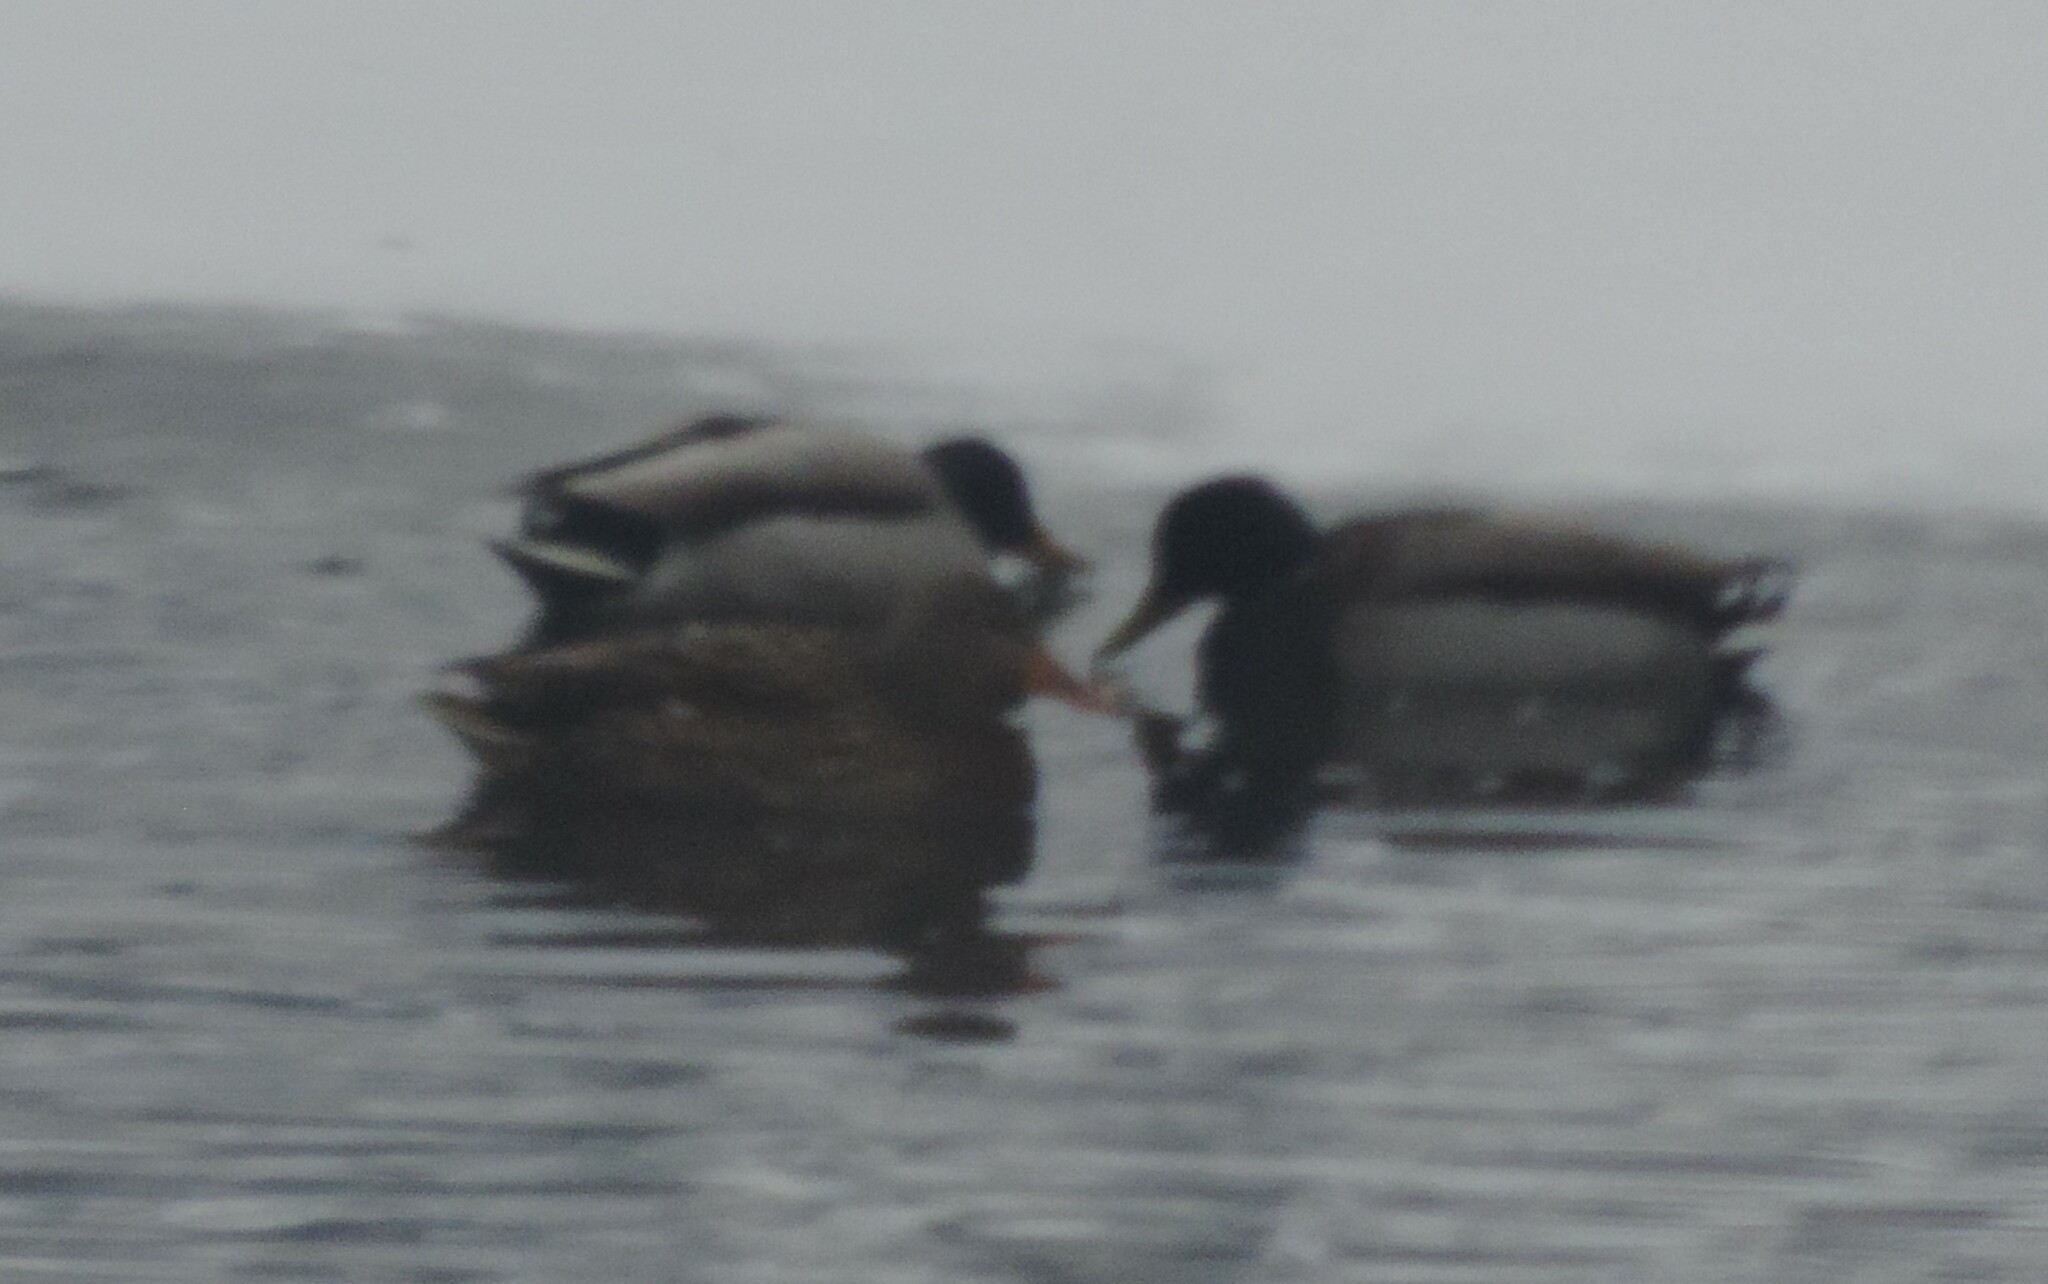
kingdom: Animalia
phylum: Chordata
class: Aves
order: Anseriformes
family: Anatidae
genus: Anas
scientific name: Anas platyrhynchos
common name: Mallard
